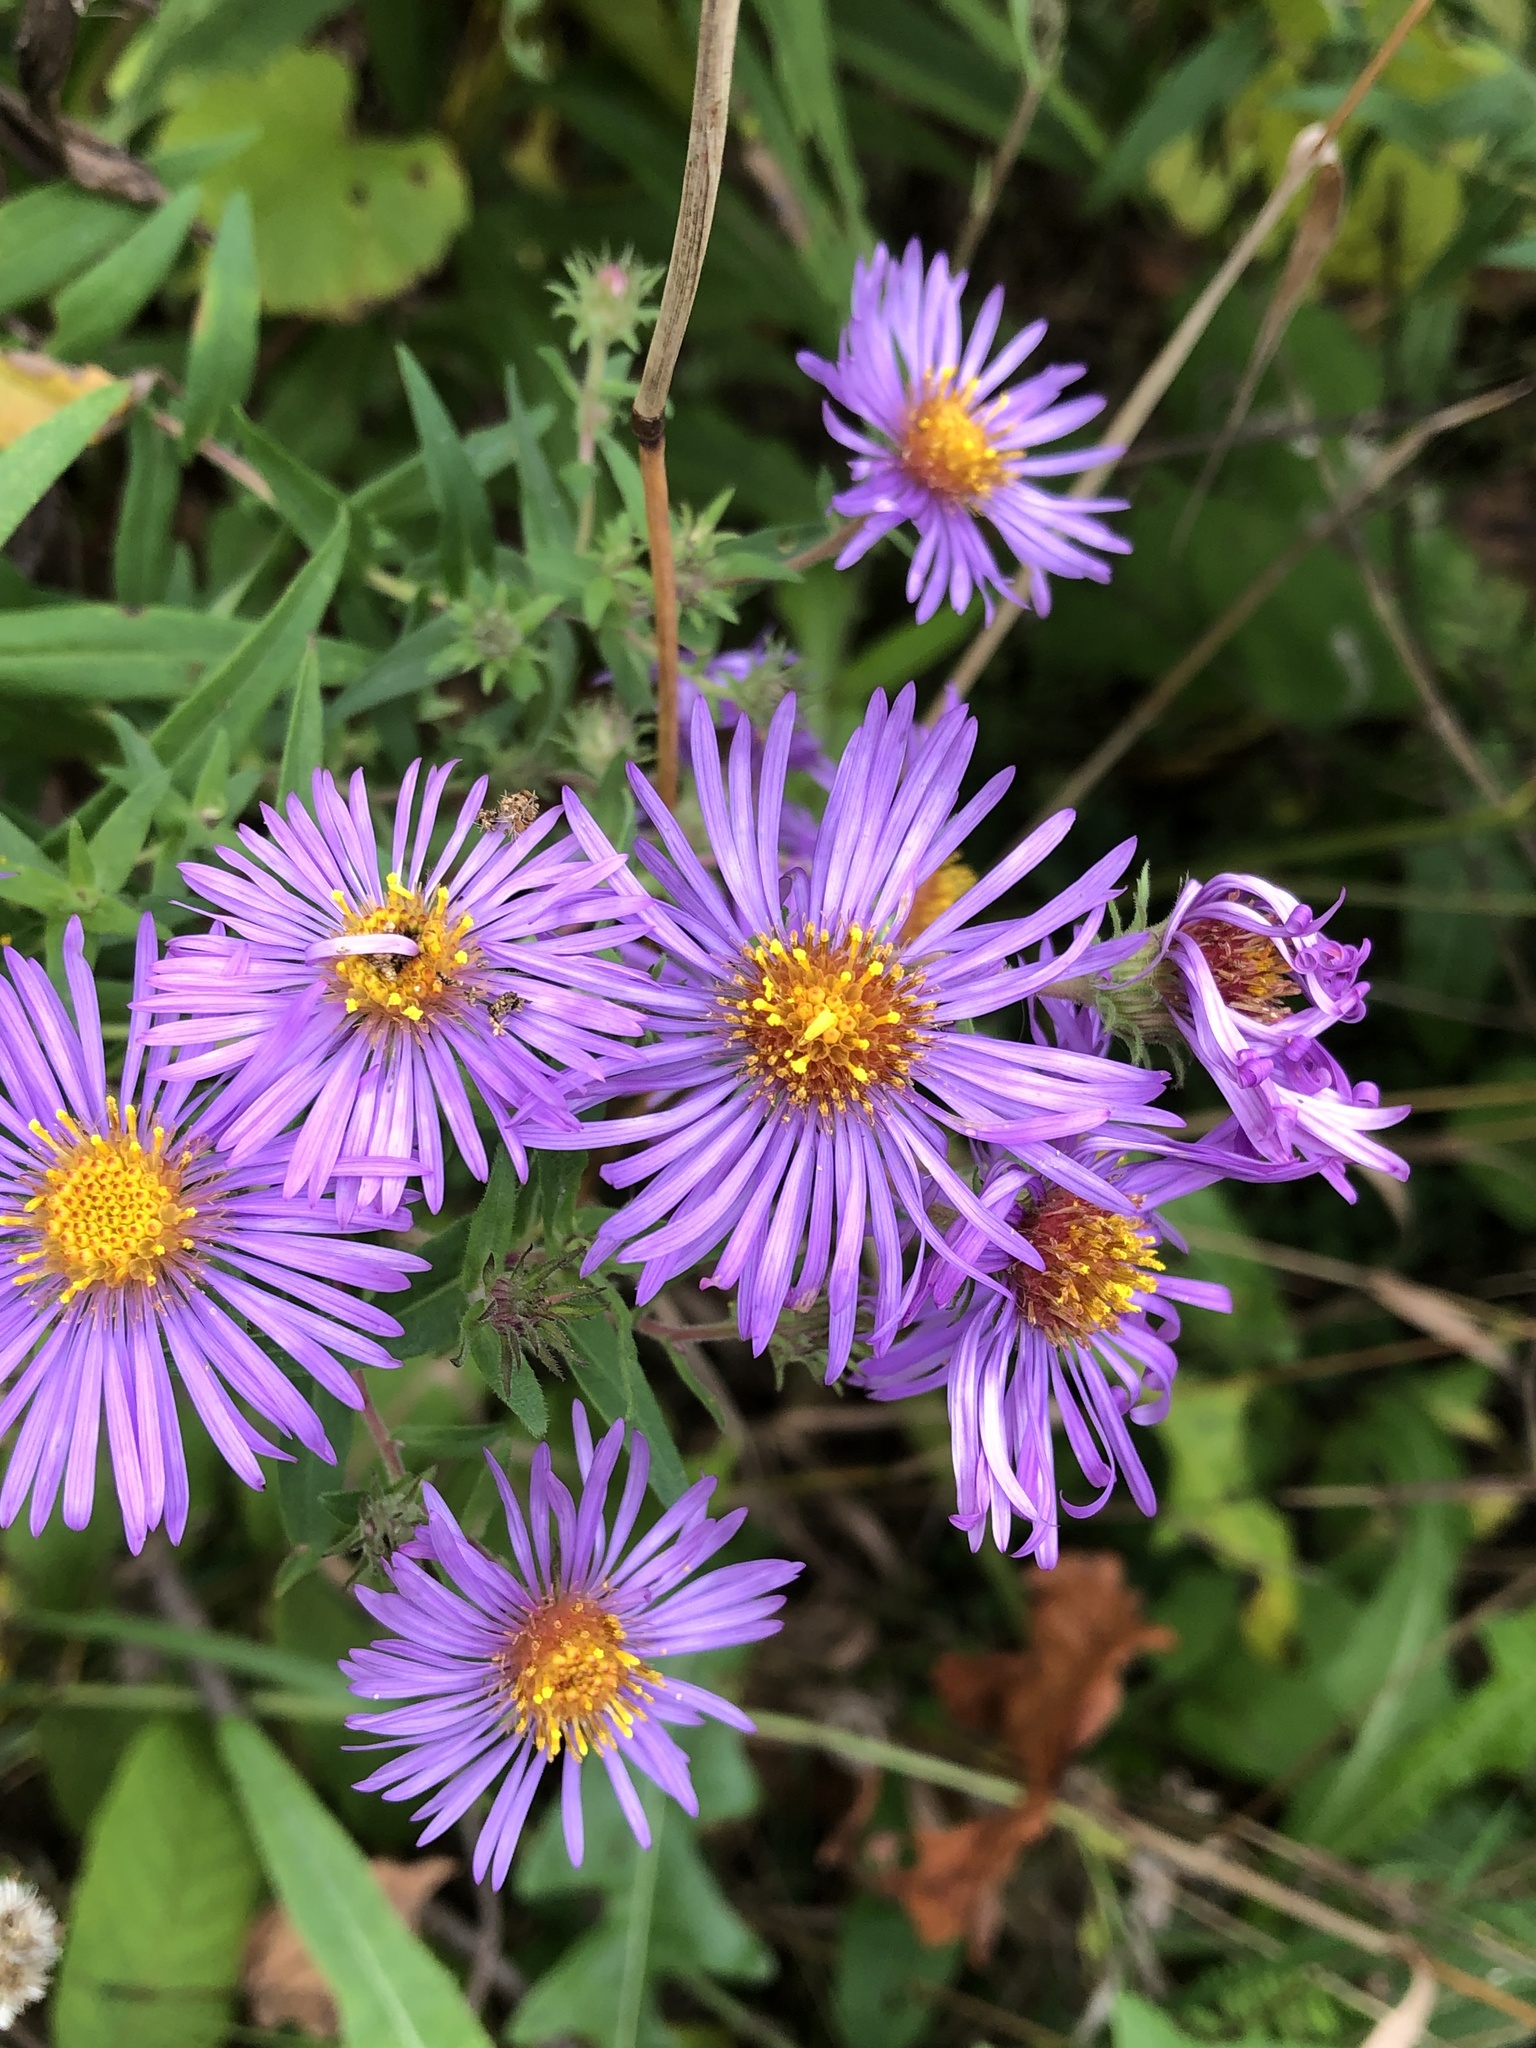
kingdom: Plantae
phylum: Tracheophyta
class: Magnoliopsida
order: Asterales
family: Asteraceae
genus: Symphyotrichum
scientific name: Symphyotrichum novae-angliae
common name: Michaelmas daisy
